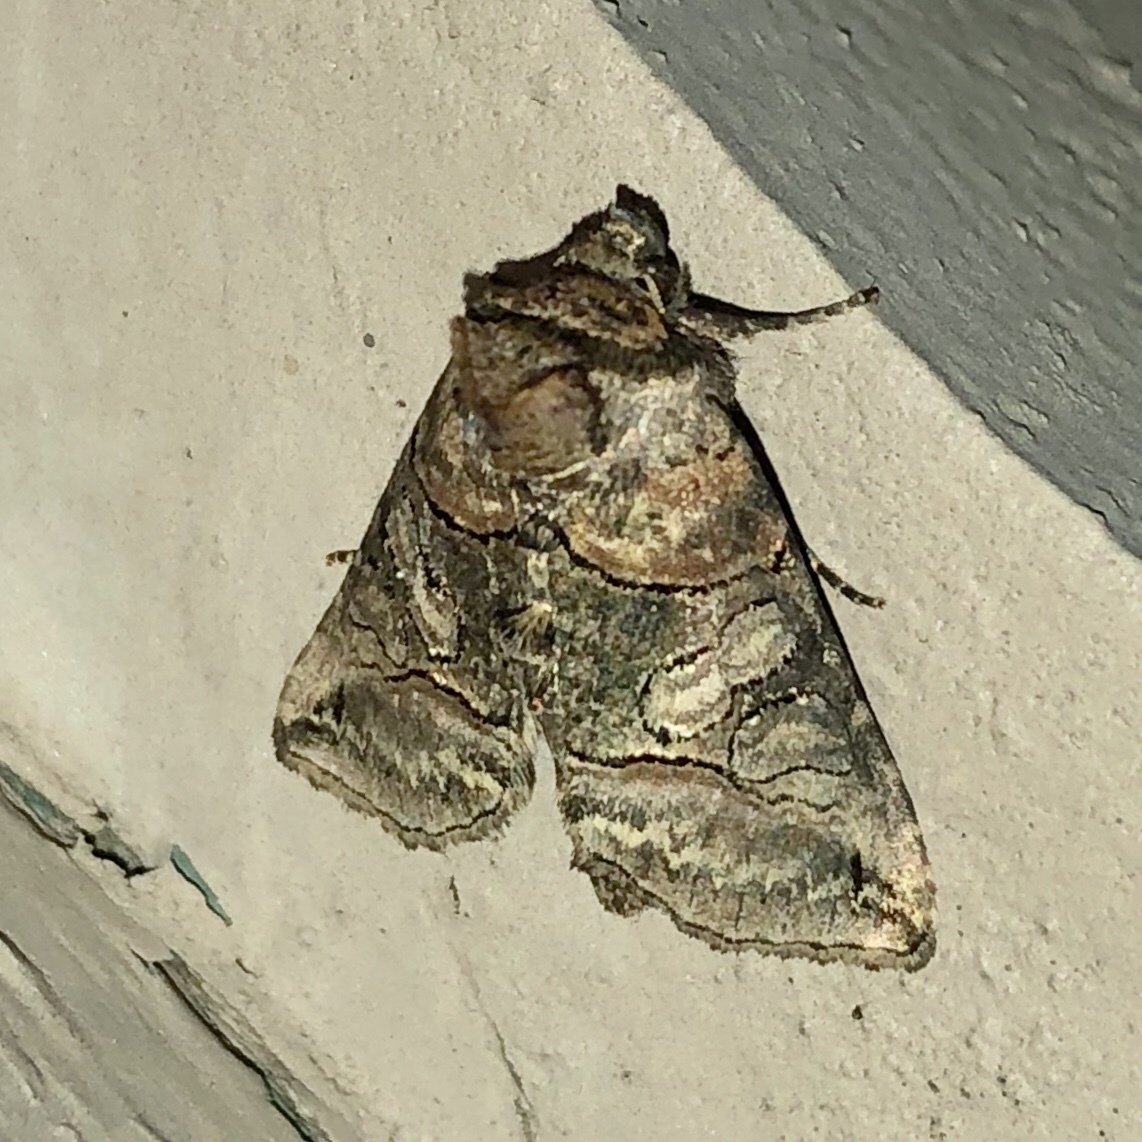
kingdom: Animalia
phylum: Arthropoda
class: Insecta
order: Lepidoptera
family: Noctuidae
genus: Abrostola
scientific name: Abrostola urentis
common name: Spectacled nettle moth
